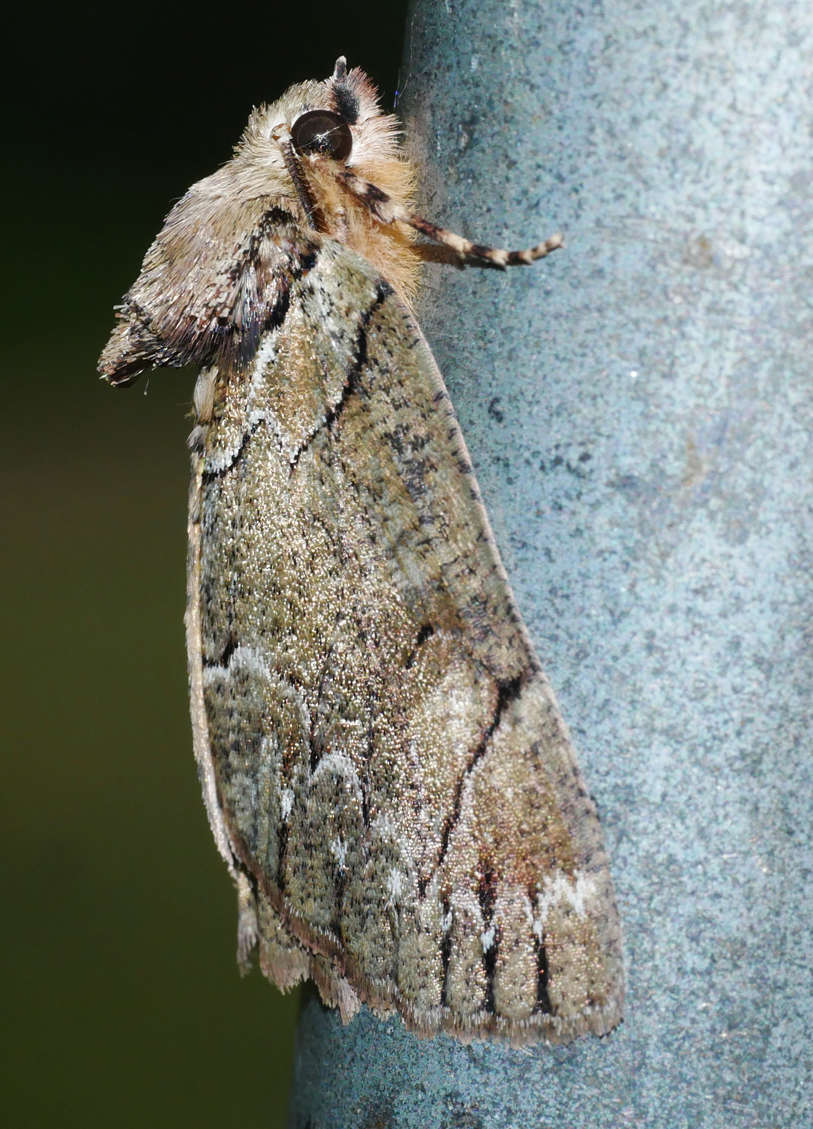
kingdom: Animalia
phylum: Arthropoda
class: Insecta
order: Lepidoptera
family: Geometridae
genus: Heliomystis
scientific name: Heliomystis electrica
